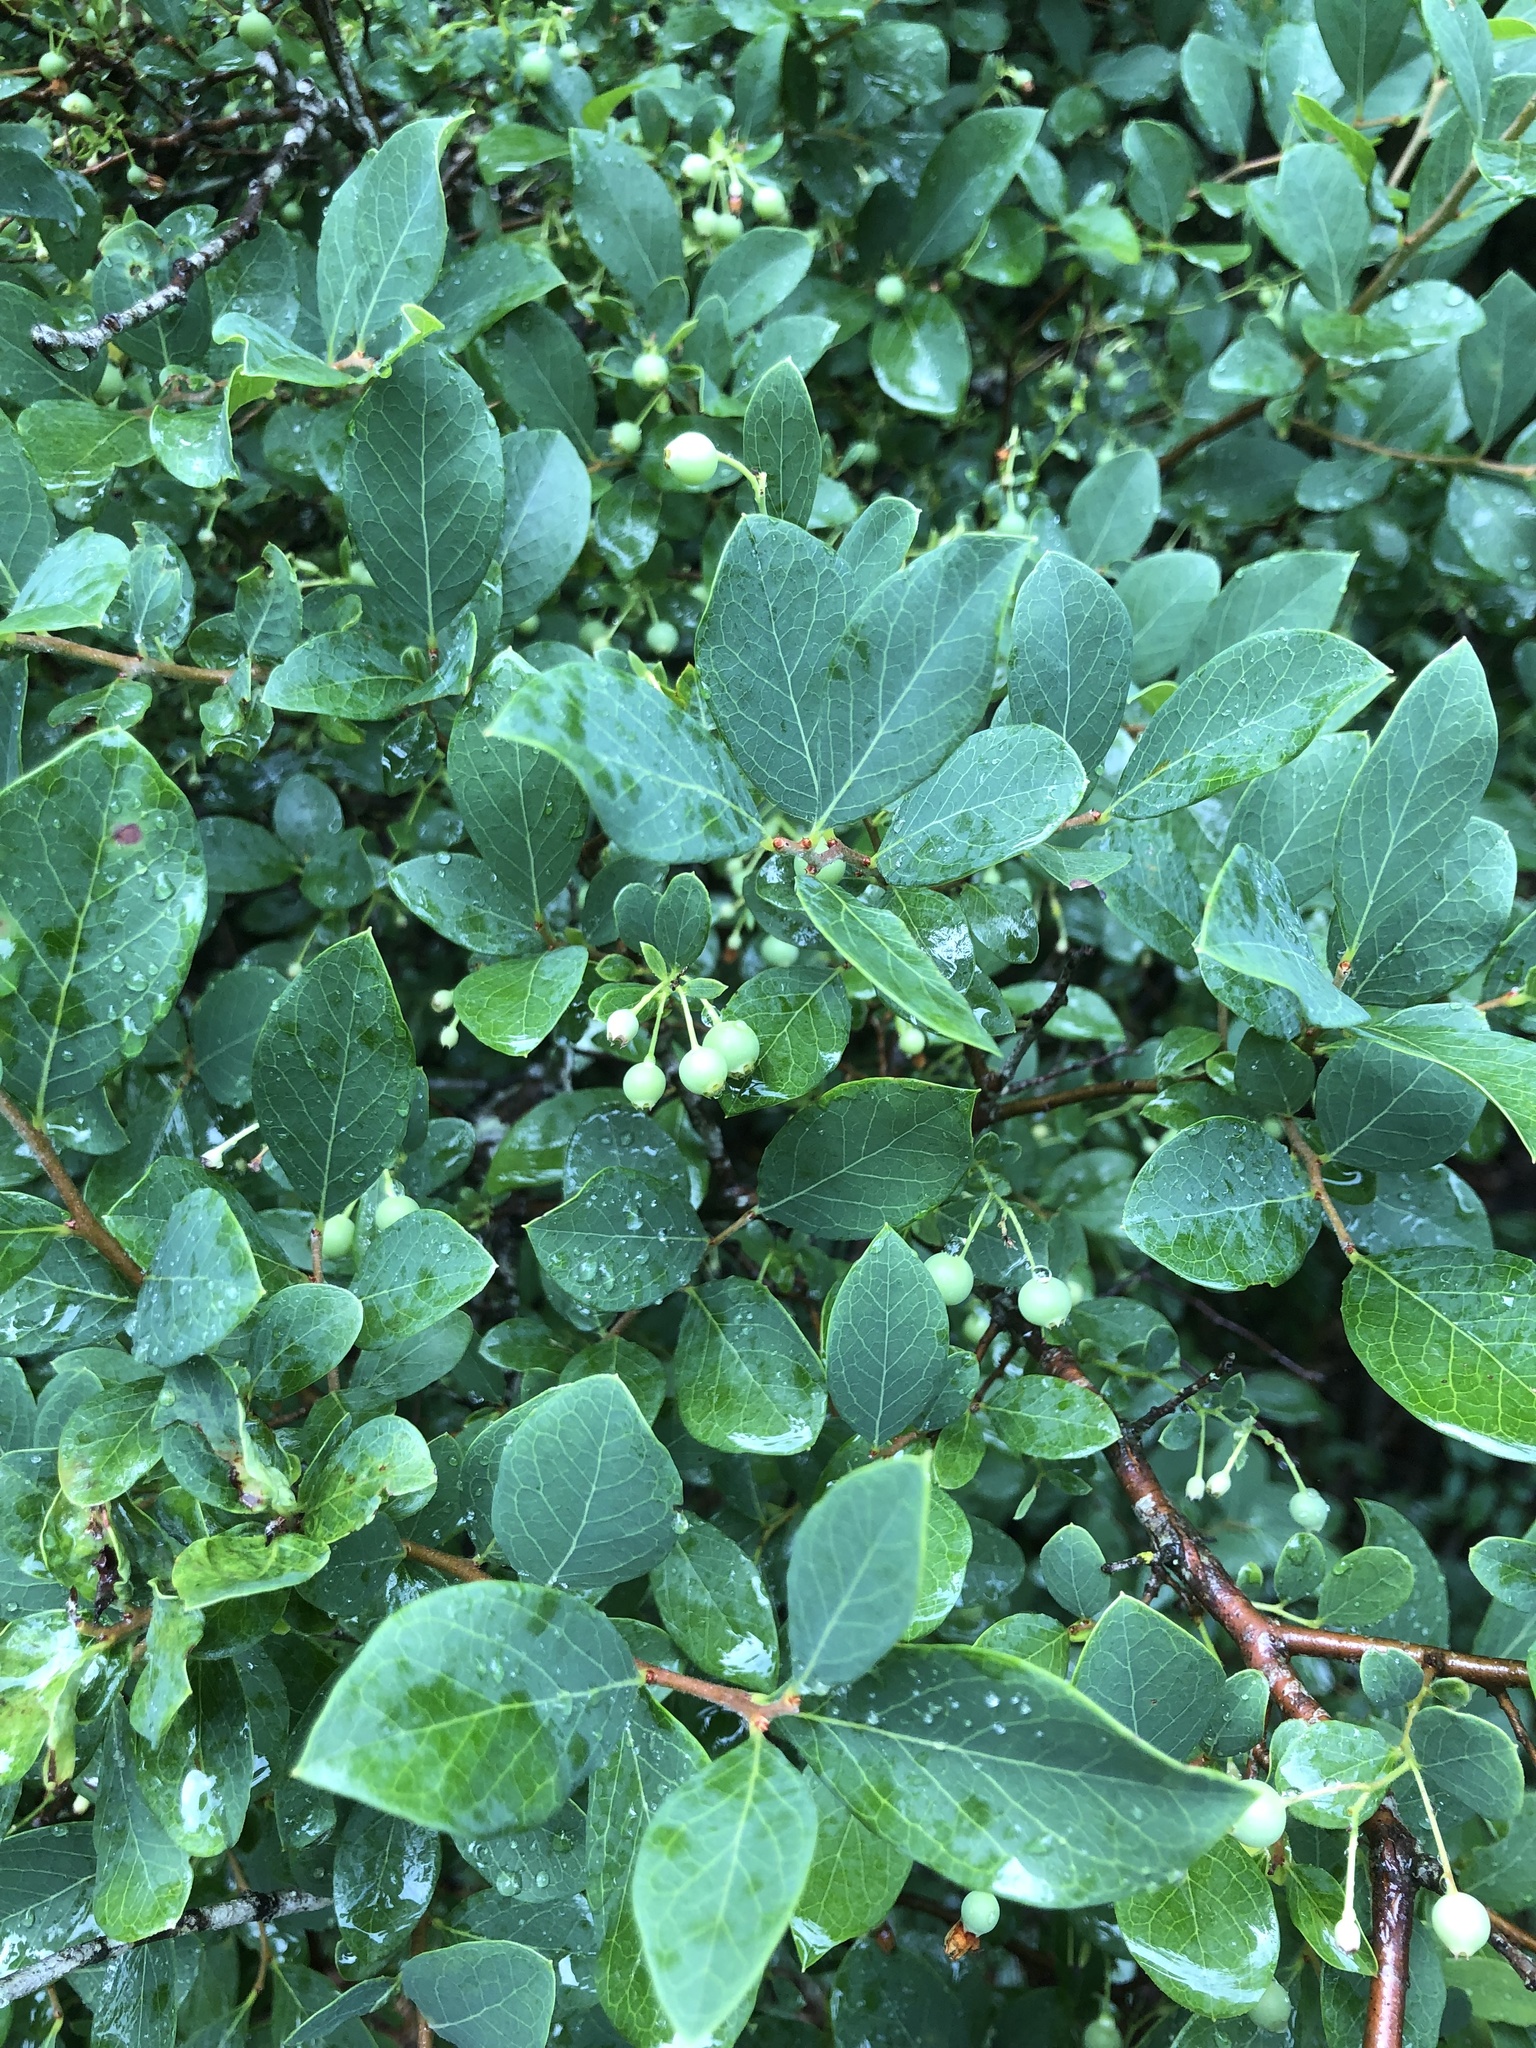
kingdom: Plantae
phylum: Tracheophyta
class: Magnoliopsida
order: Ericales
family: Ericaceae
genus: Vaccinium
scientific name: Vaccinium arboreum
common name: Farkleberry
